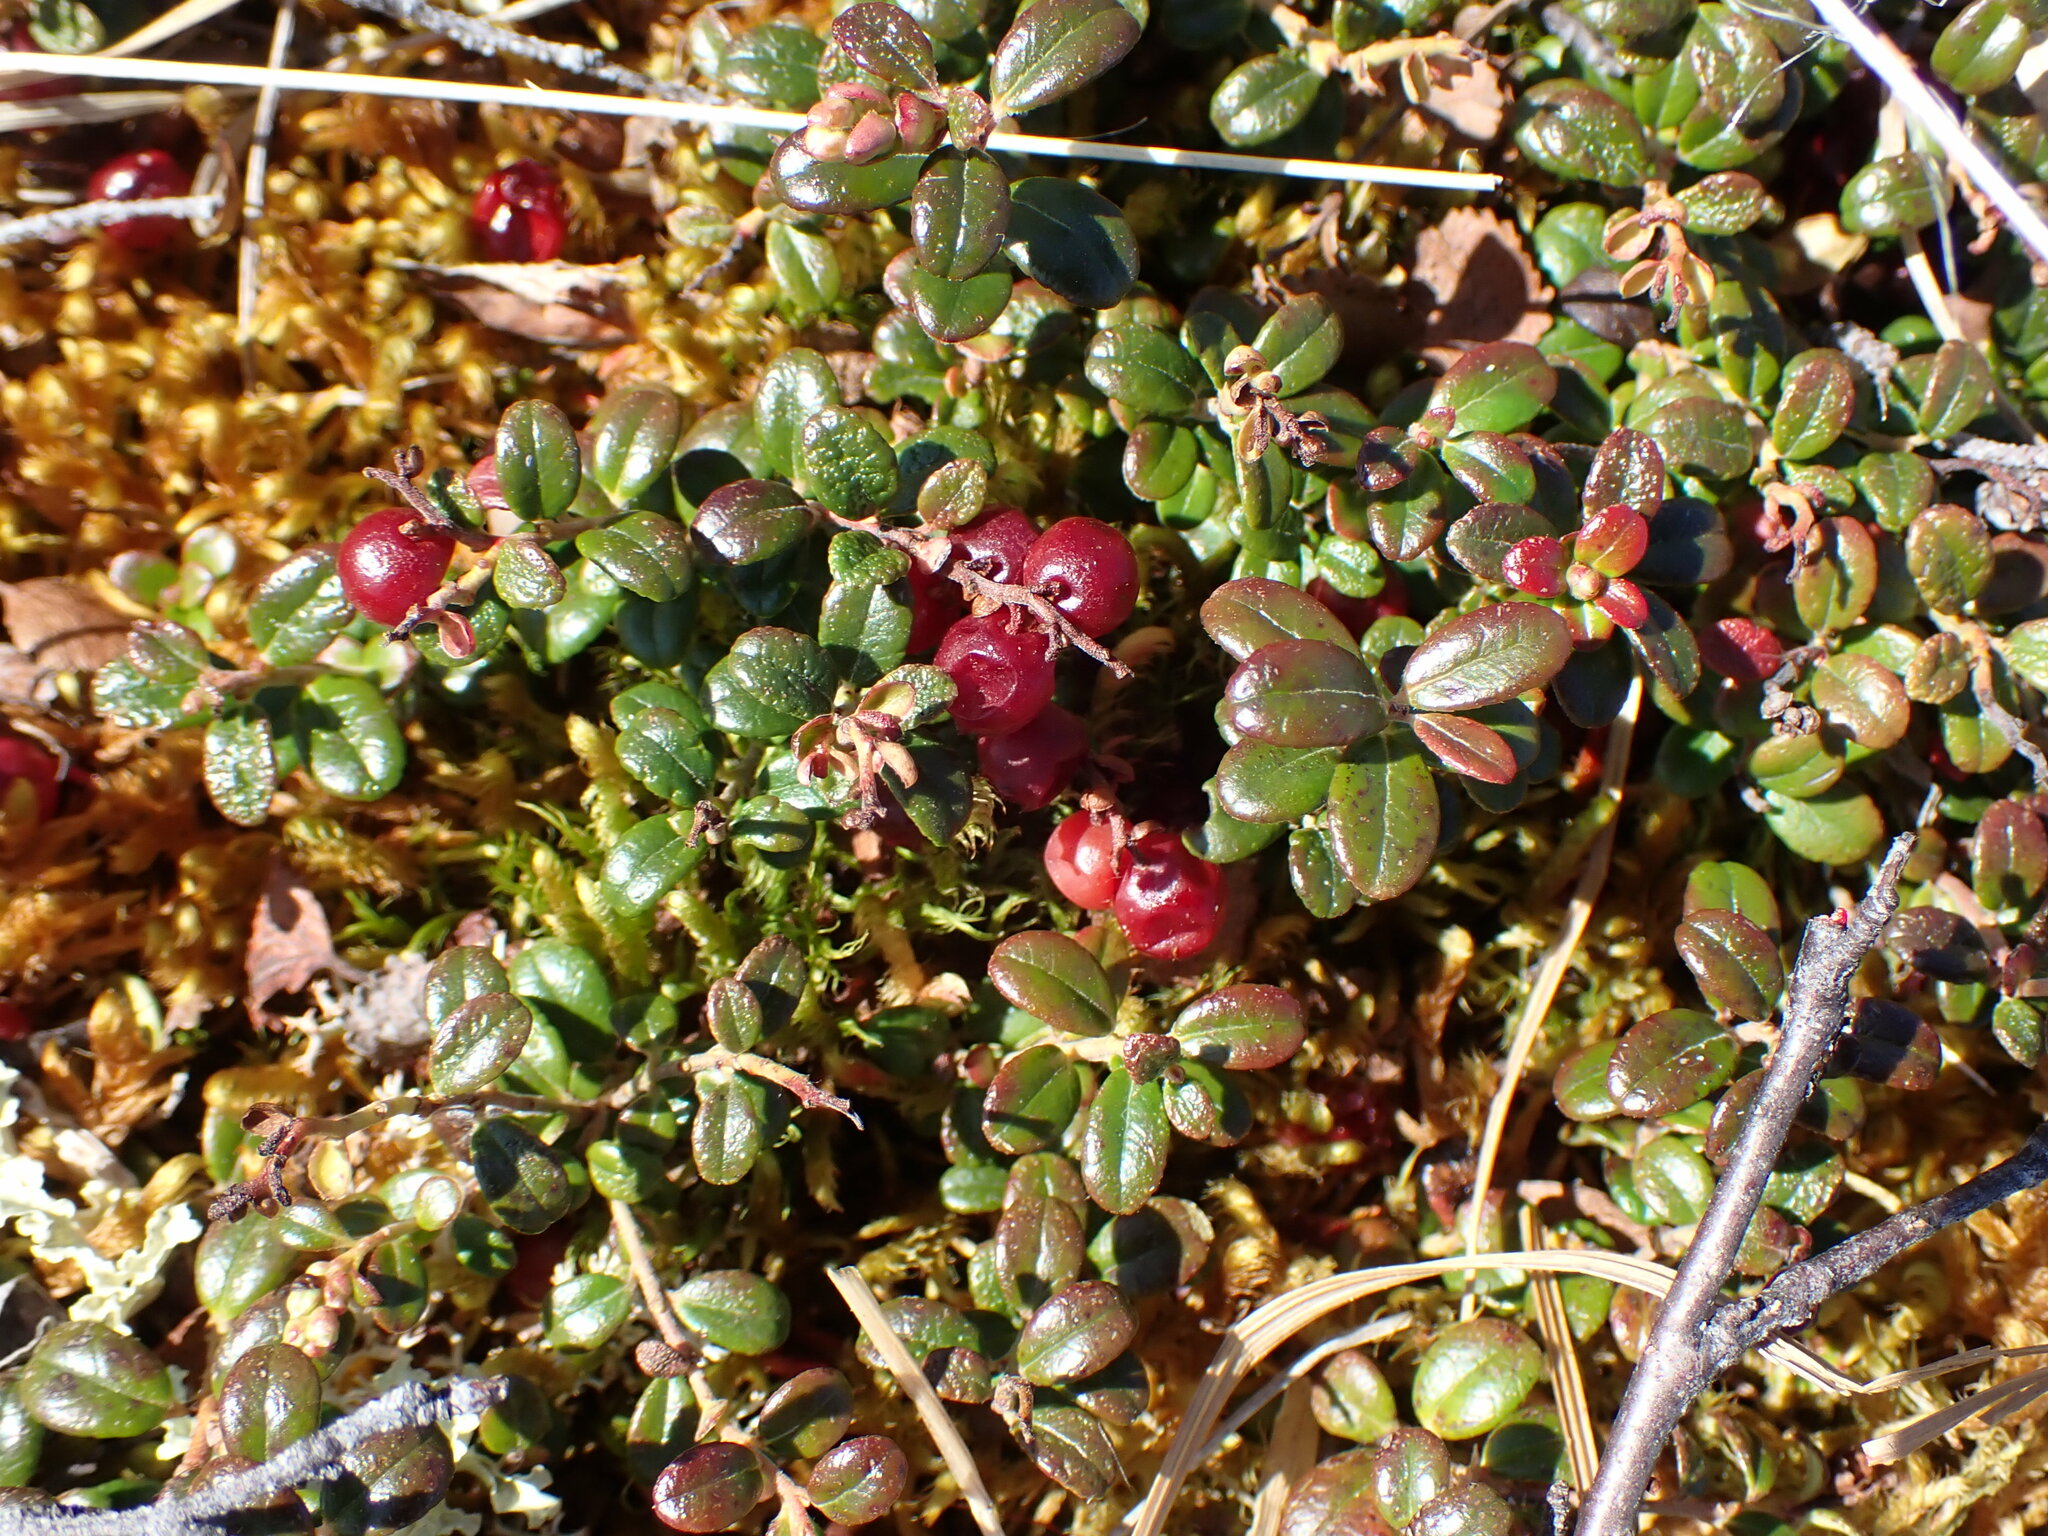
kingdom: Plantae
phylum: Tracheophyta
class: Magnoliopsida
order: Ericales
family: Ericaceae
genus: Vaccinium
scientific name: Vaccinium vitis-idaea
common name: Cowberry
